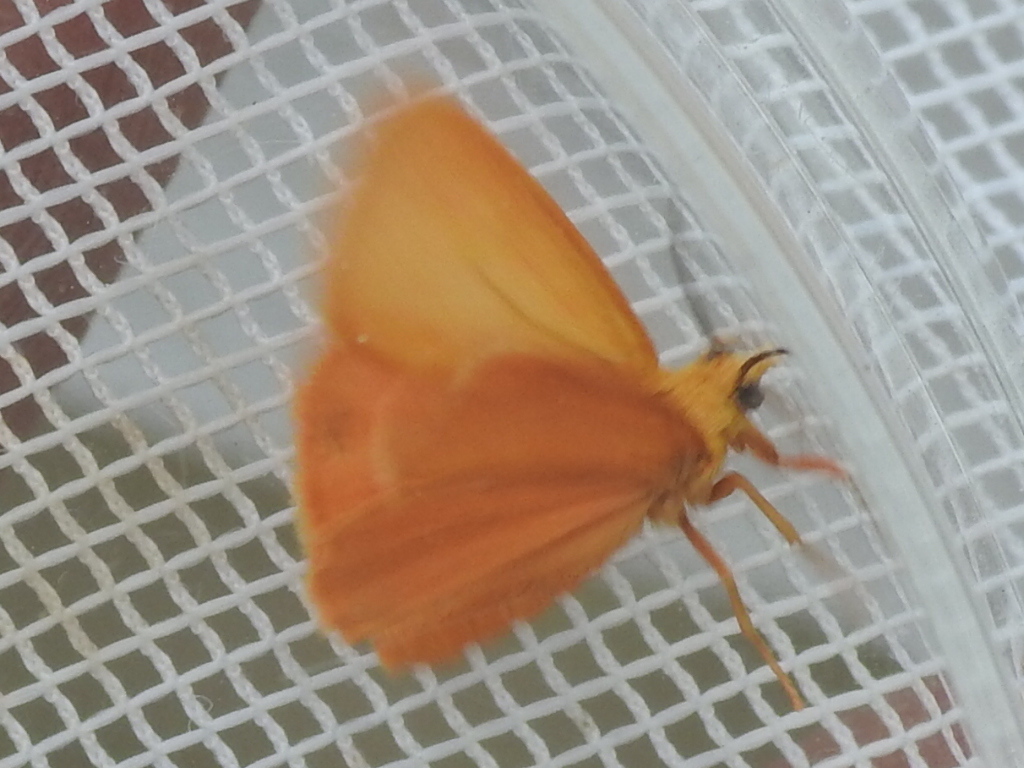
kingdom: Animalia
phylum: Arthropoda
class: Insecta
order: Lepidoptera
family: Erebidae
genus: Virbia
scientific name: Virbia aurantiaca
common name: Orange virbia moth
